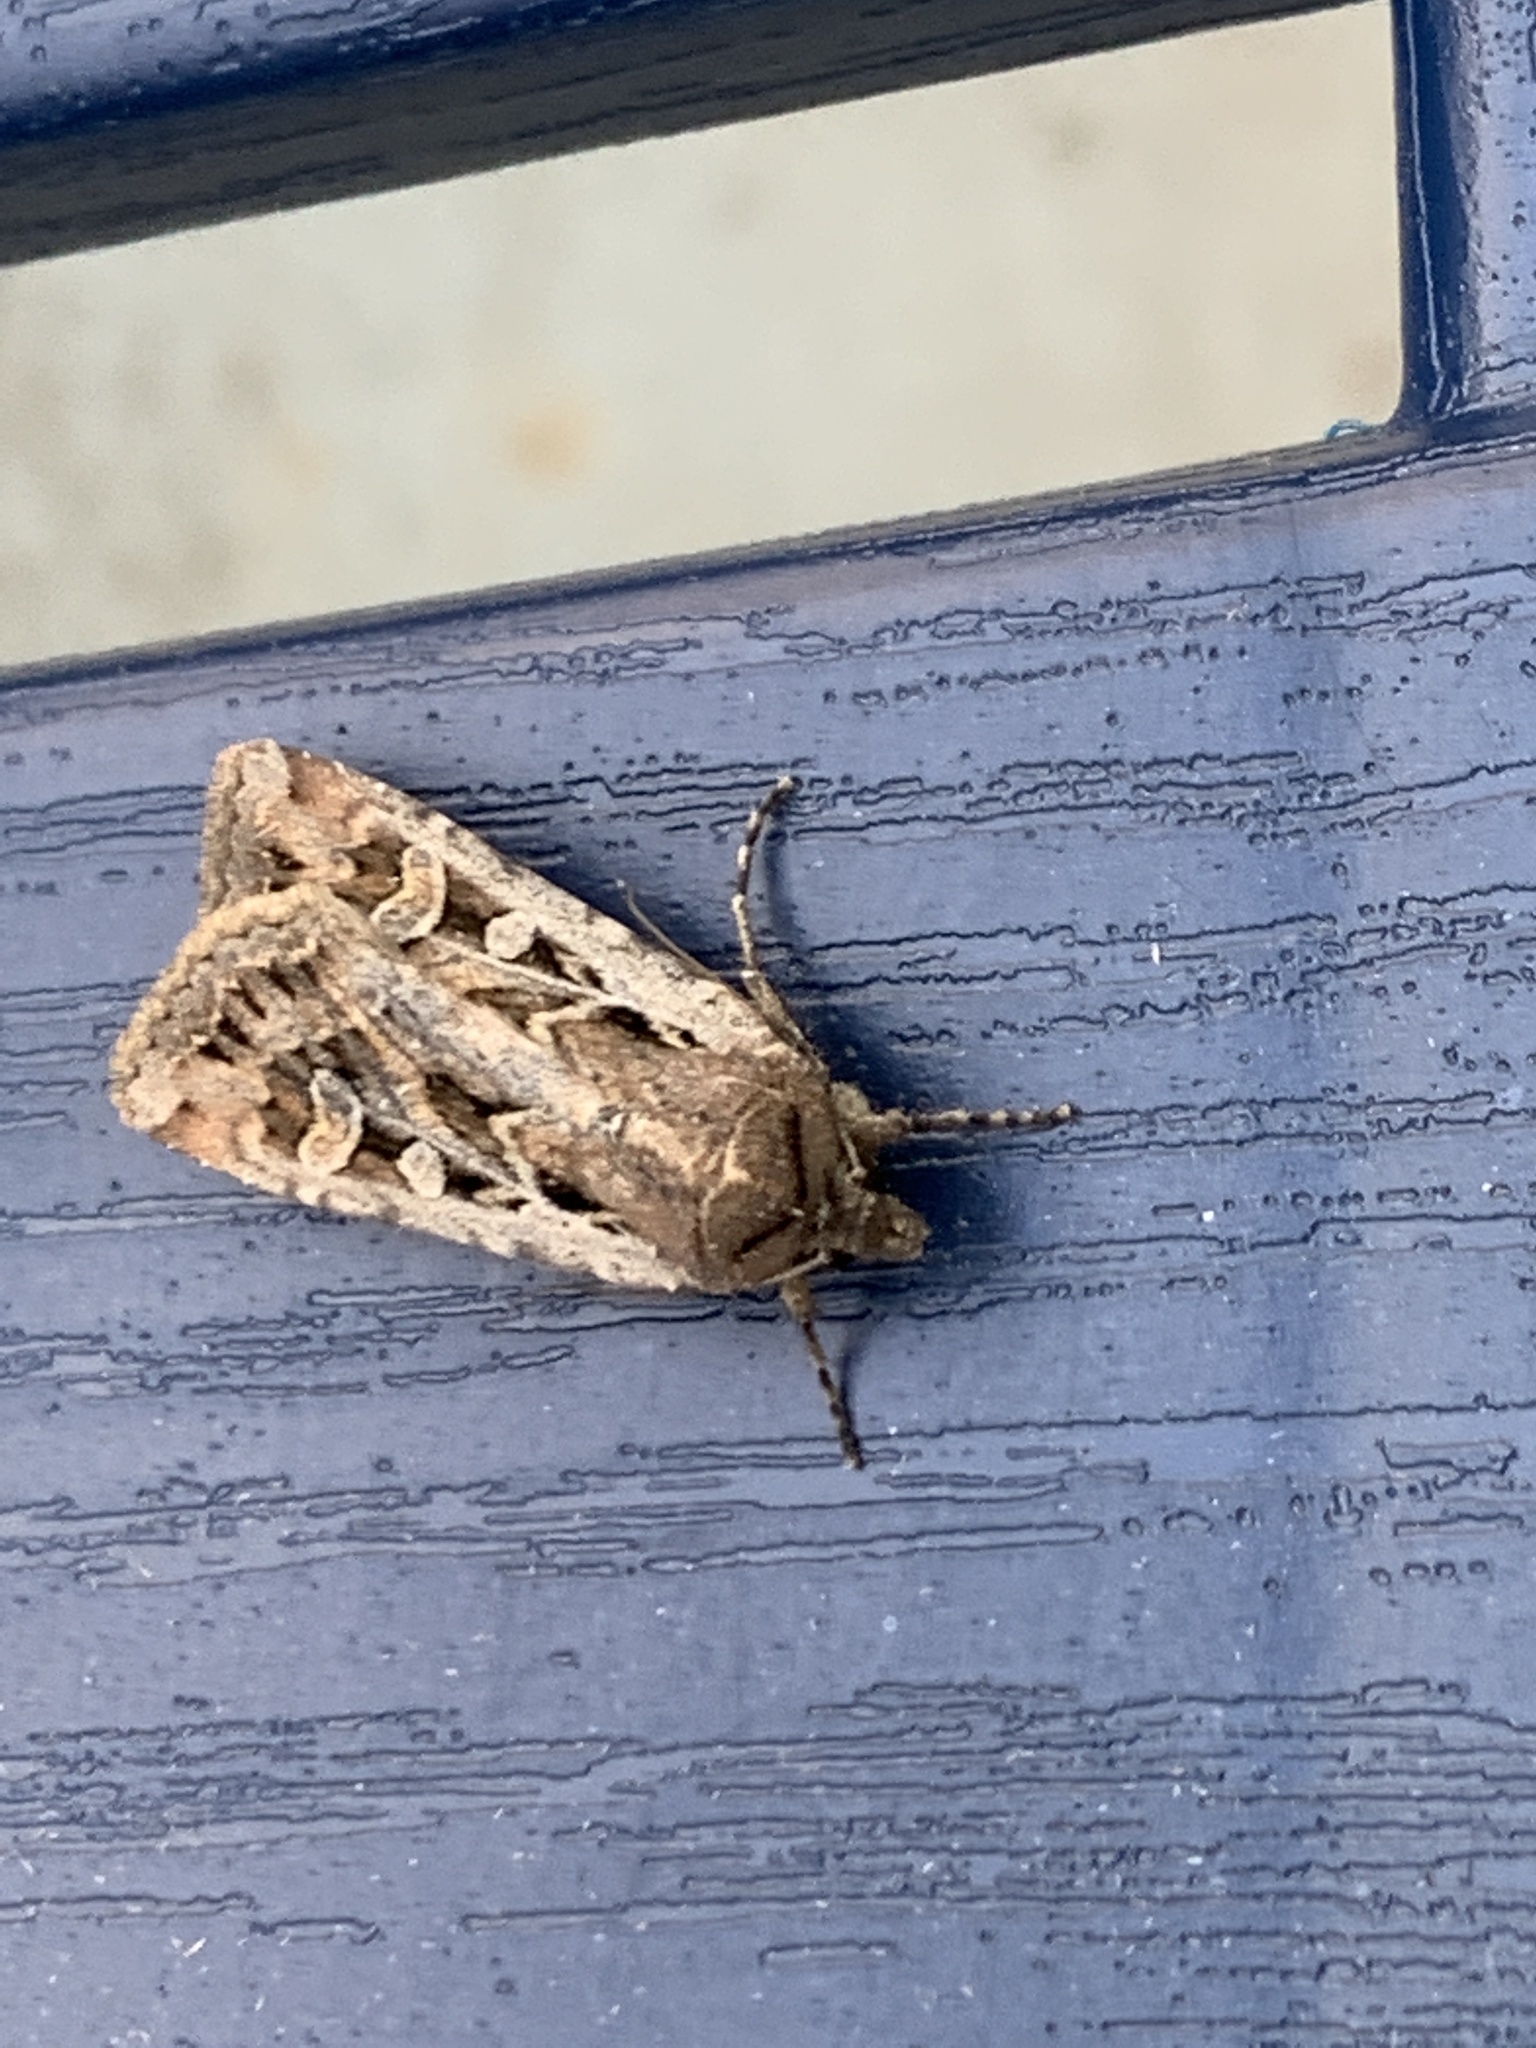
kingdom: Animalia
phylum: Arthropoda
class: Insecta
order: Lepidoptera
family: Noctuidae
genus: Euxoa
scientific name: Euxoa auxiliaris
